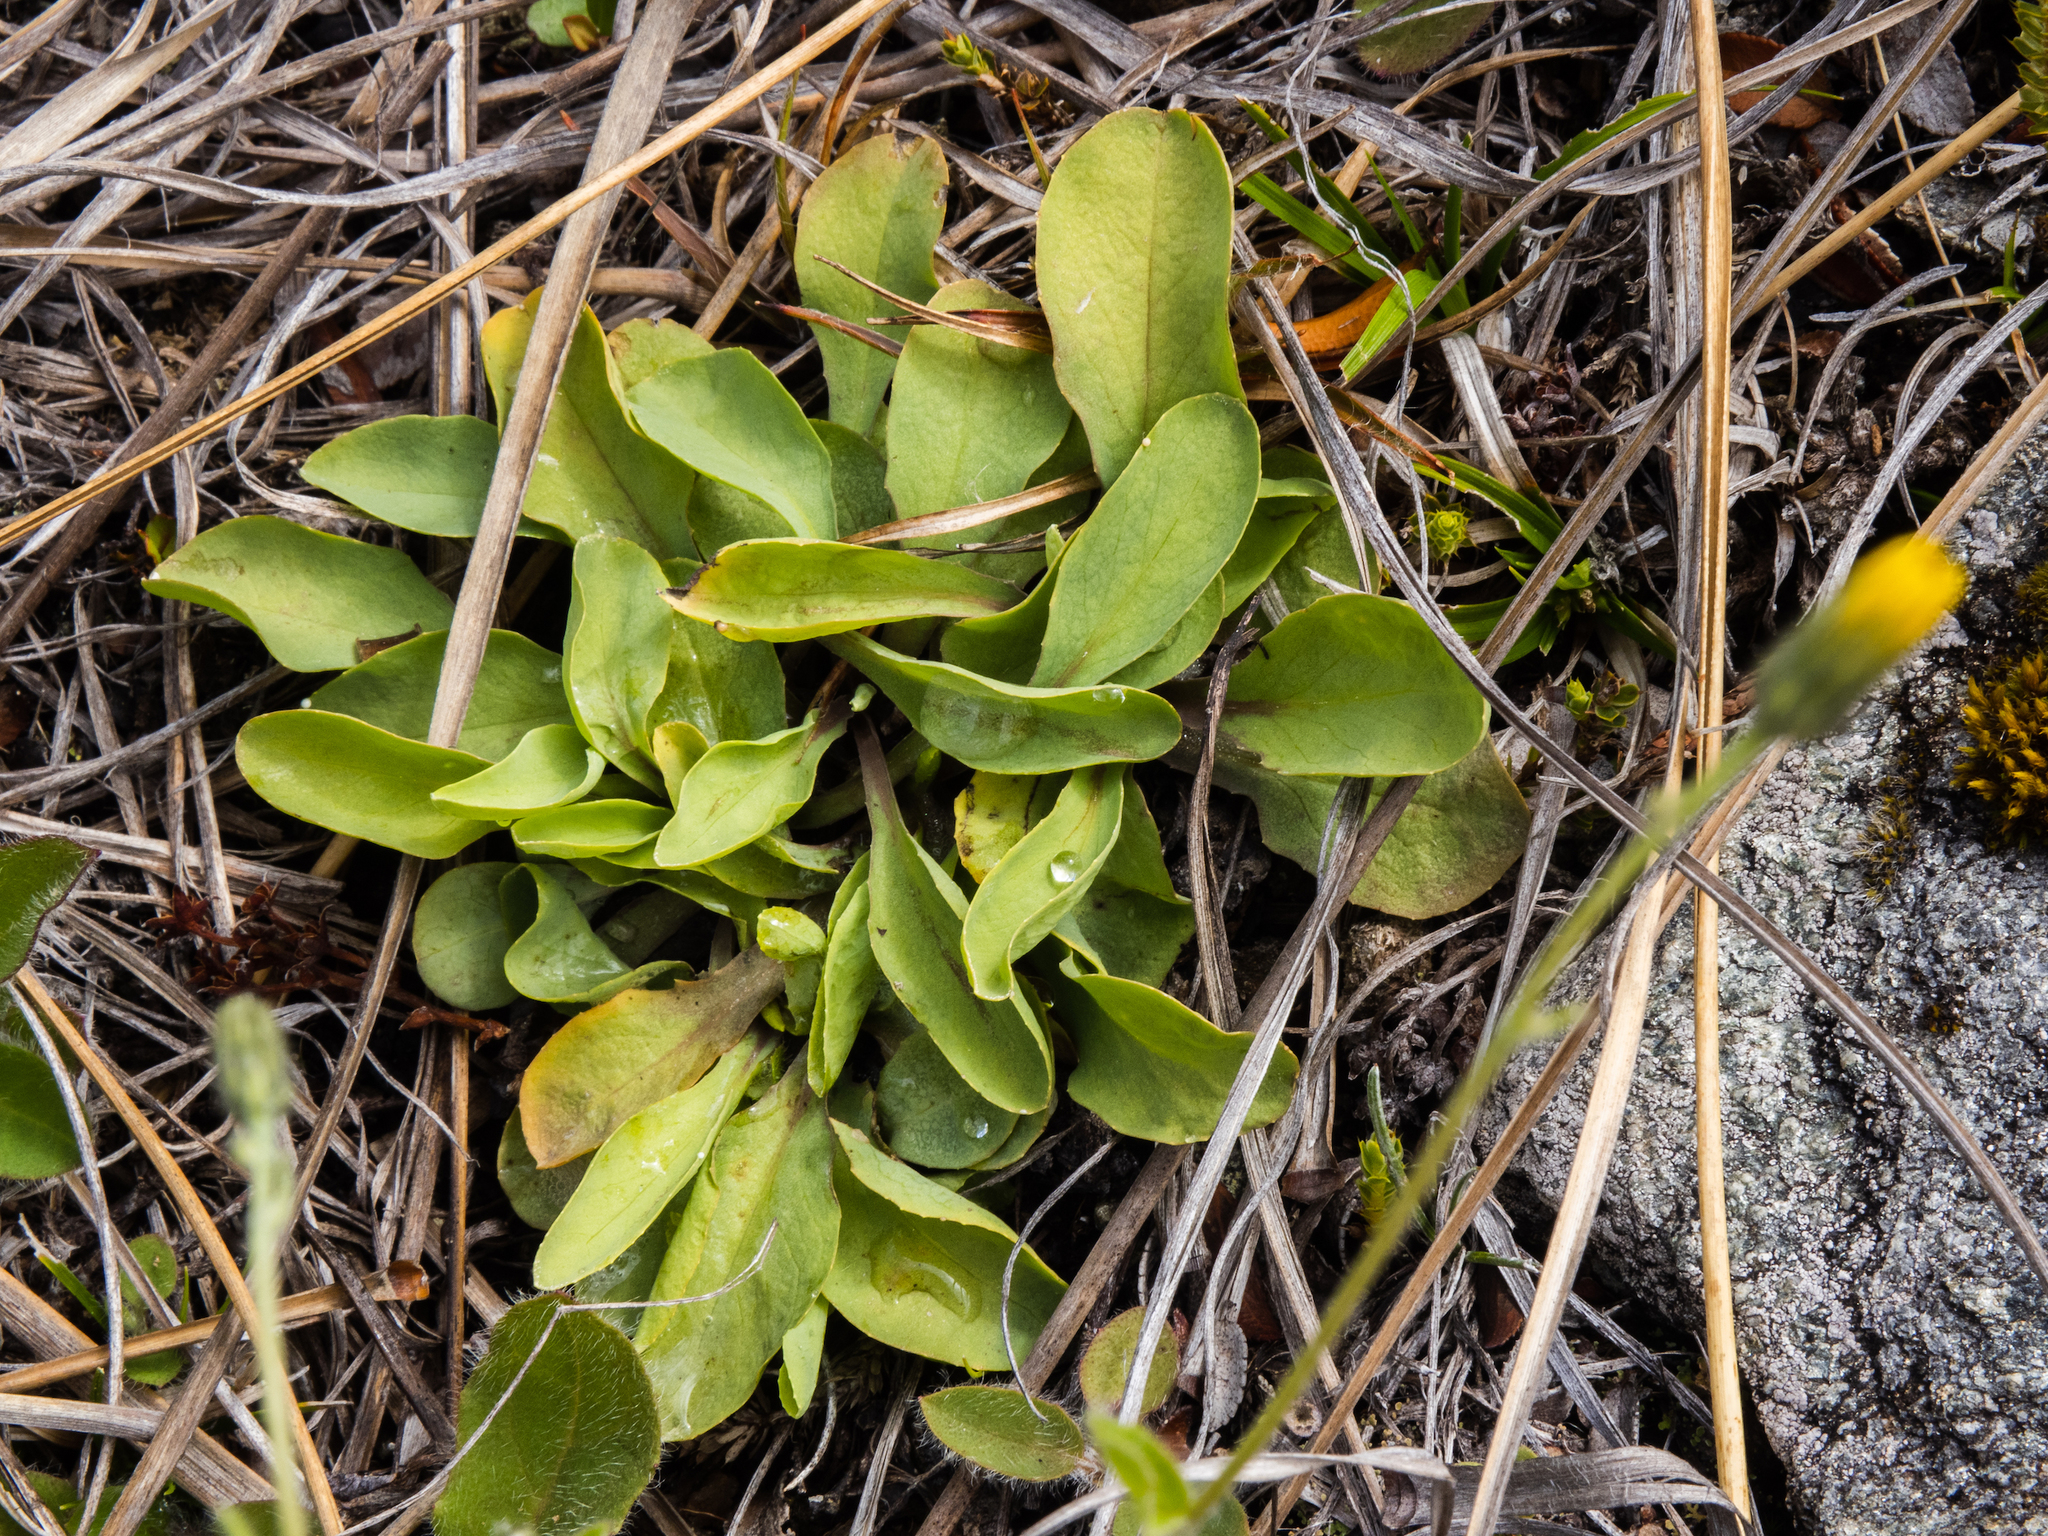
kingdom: Plantae
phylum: Tracheophyta
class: Magnoliopsida
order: Asterales
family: Asteraceae
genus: Sonchus
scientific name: Sonchus novae-zelandiae
